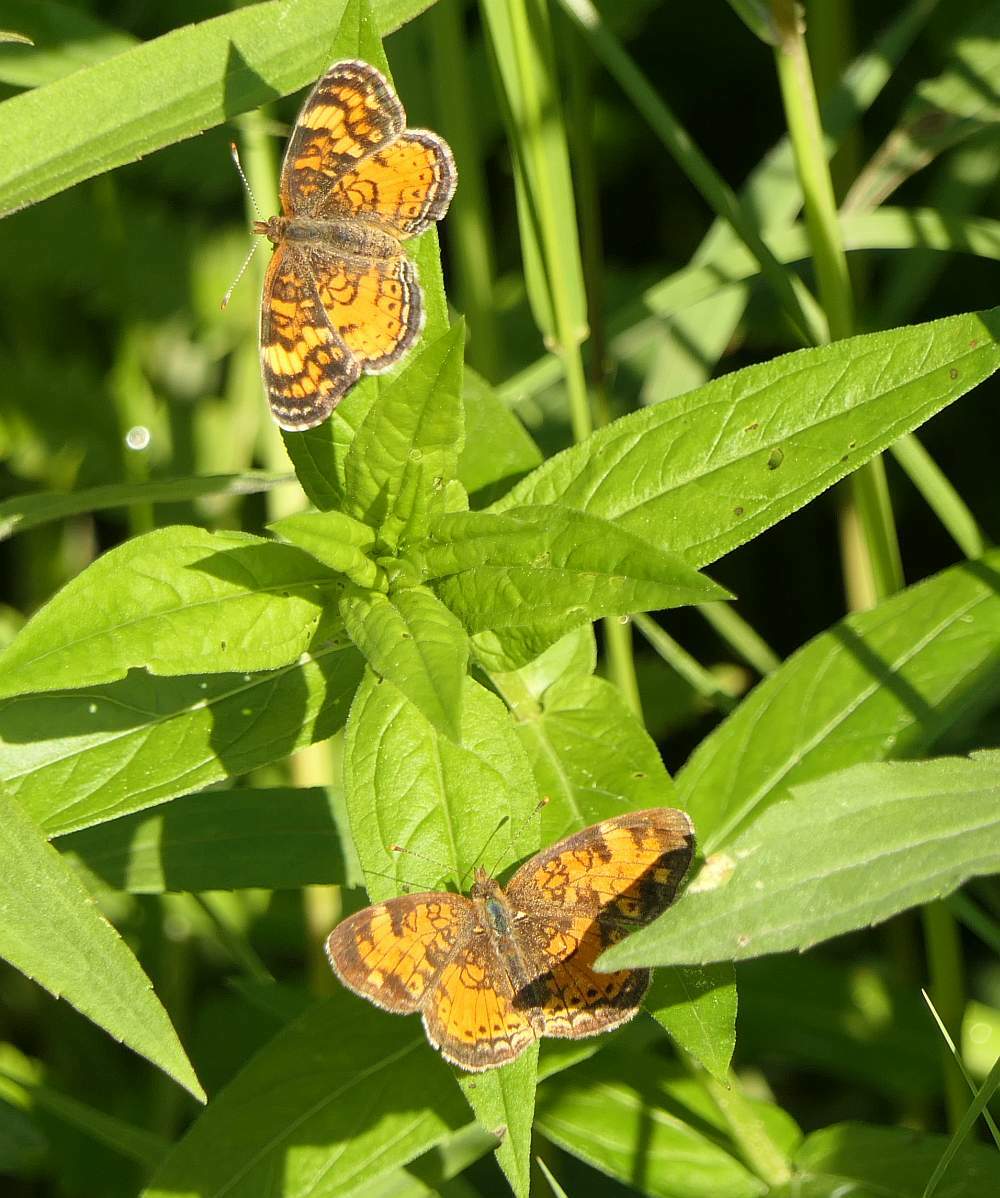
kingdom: Animalia
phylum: Arthropoda
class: Insecta
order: Lepidoptera
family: Nymphalidae
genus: Phyciodes
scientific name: Phyciodes tharos
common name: Pearl crescent
